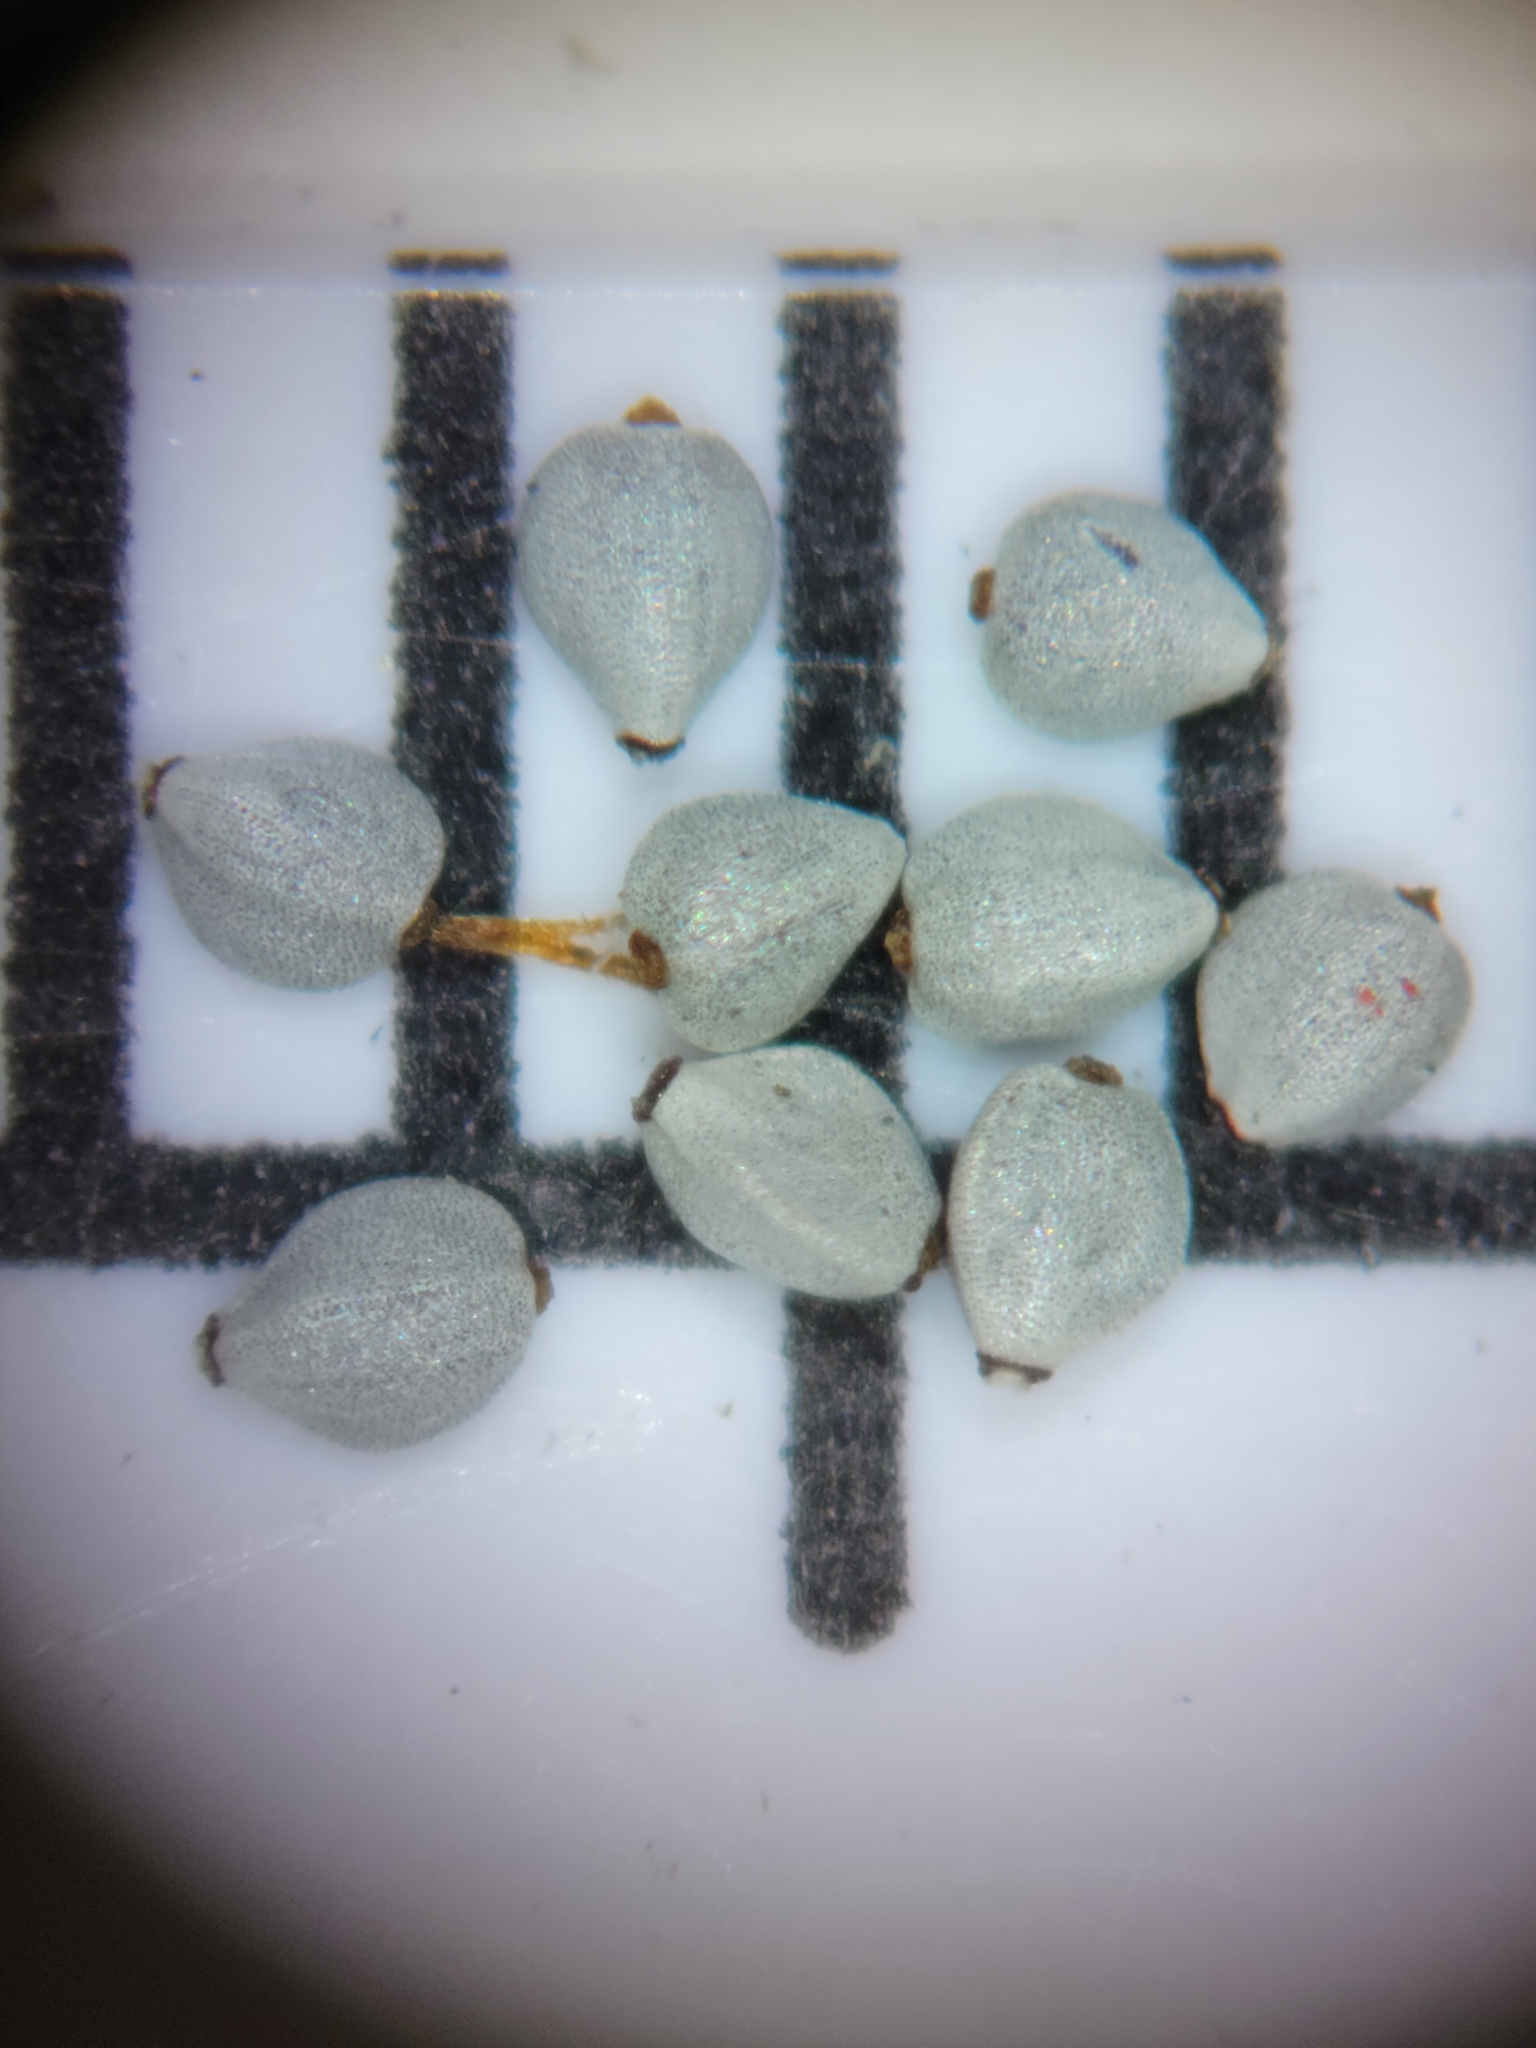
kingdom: Plantae
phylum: Tracheophyta
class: Liliopsida
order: Poales
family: Cyperaceae
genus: Bulbostylis
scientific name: Bulbostylis ciliatifolia
